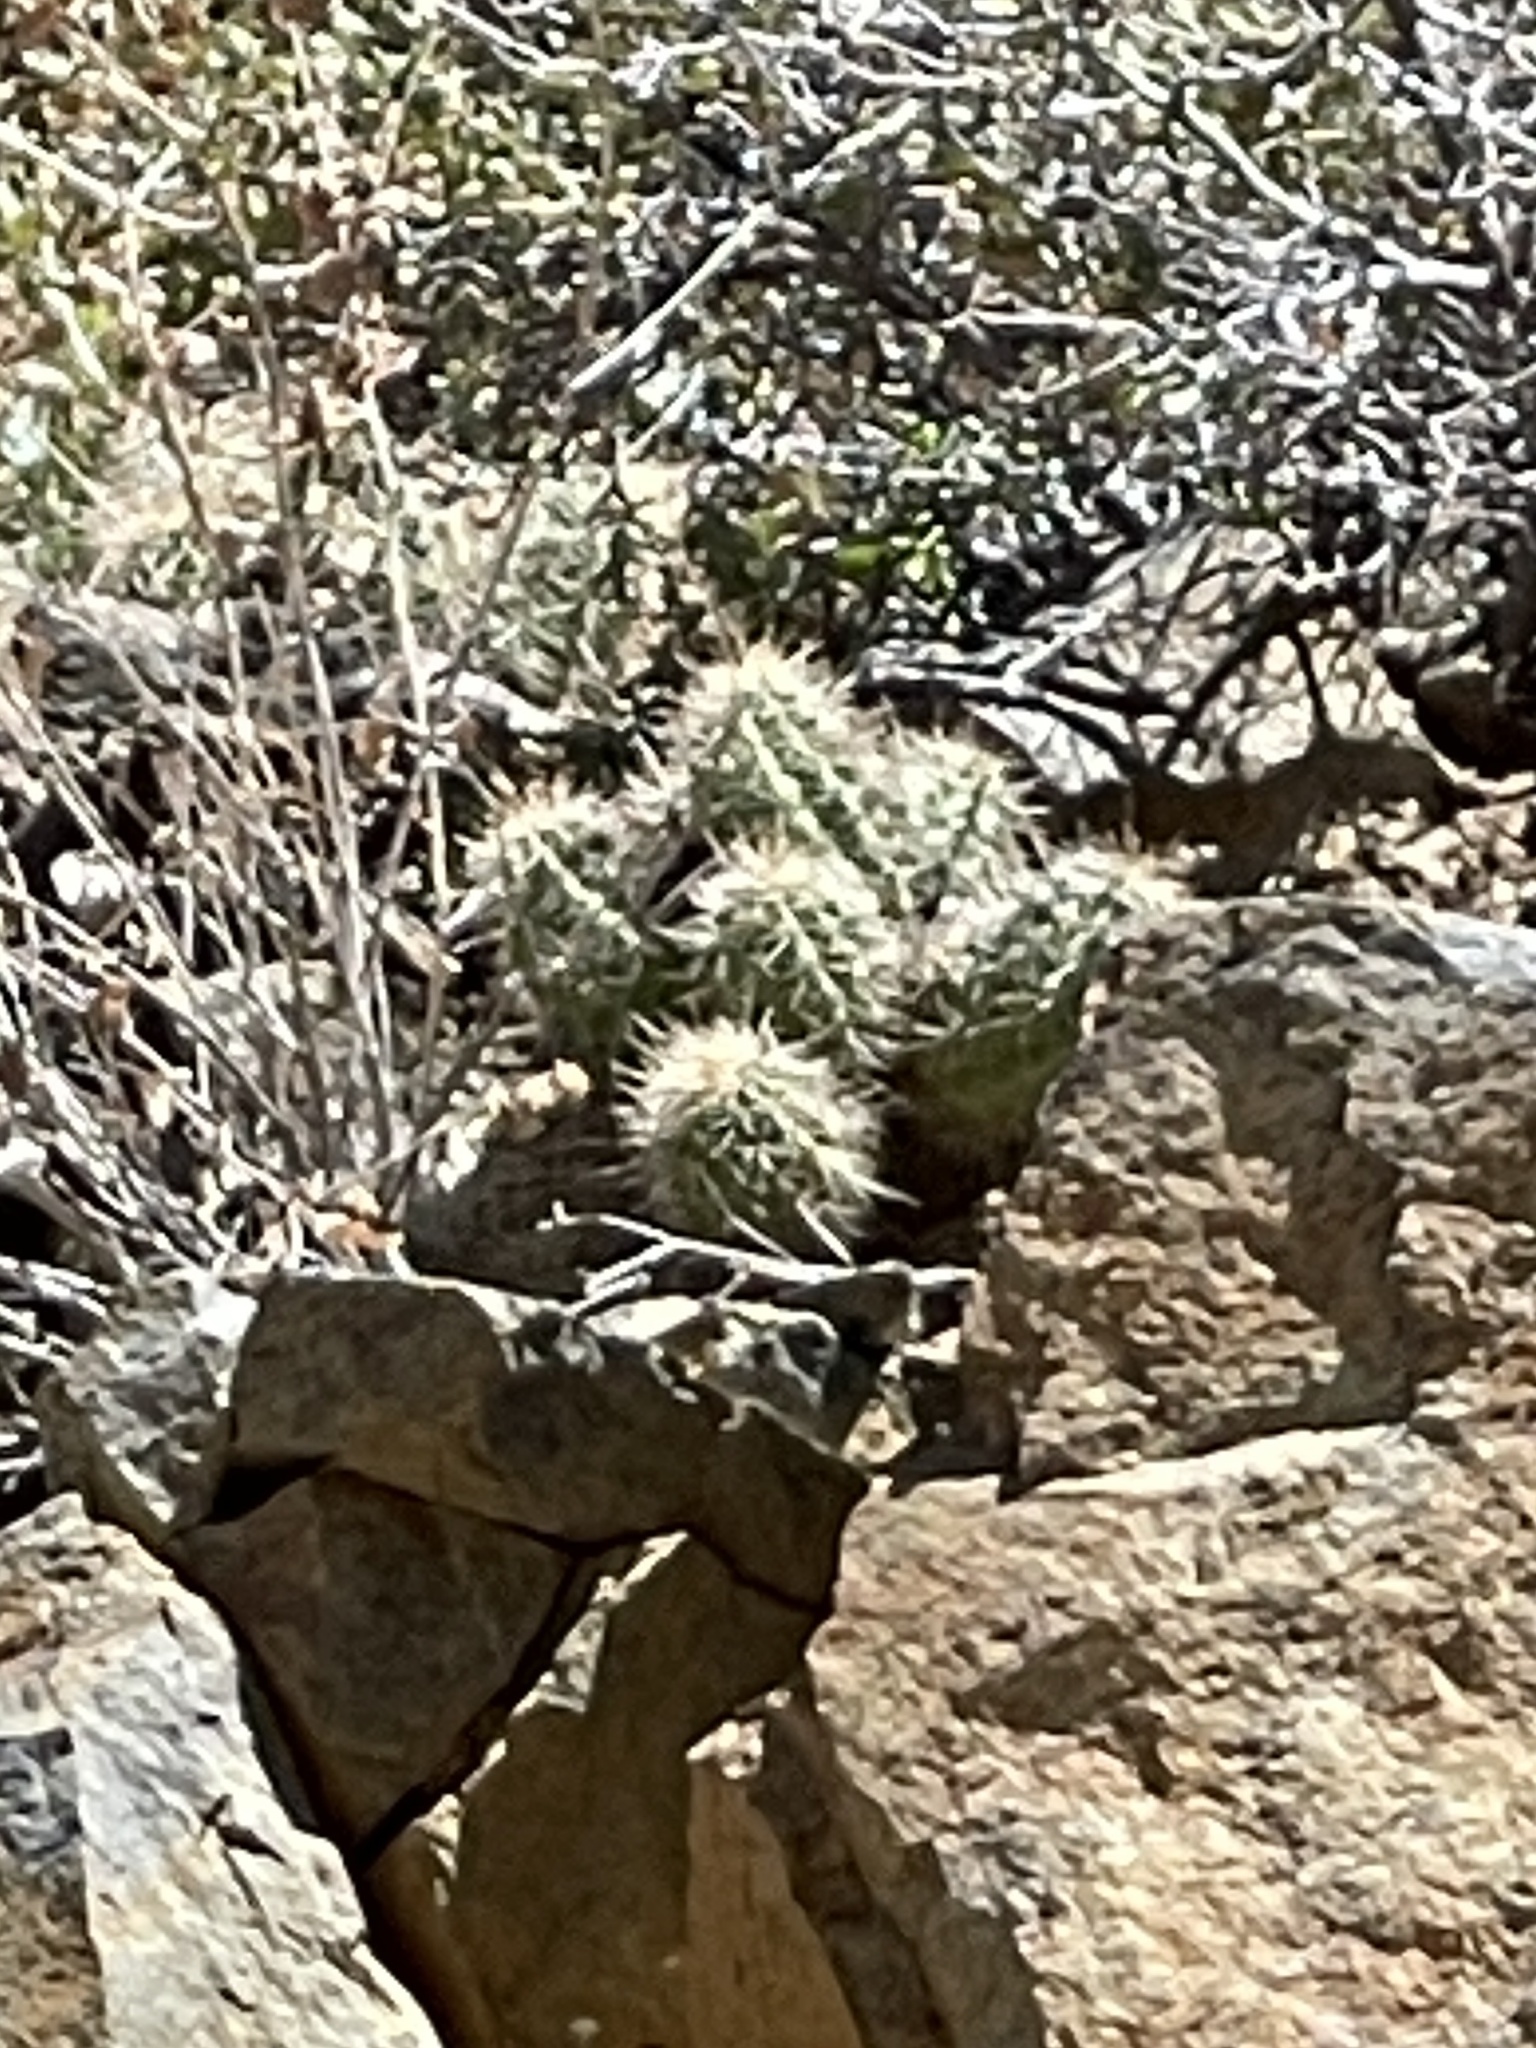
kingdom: Plantae
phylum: Tracheophyta
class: Magnoliopsida
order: Caryophyllales
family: Cactaceae
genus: Echinocereus
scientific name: Echinocereus bakeri
